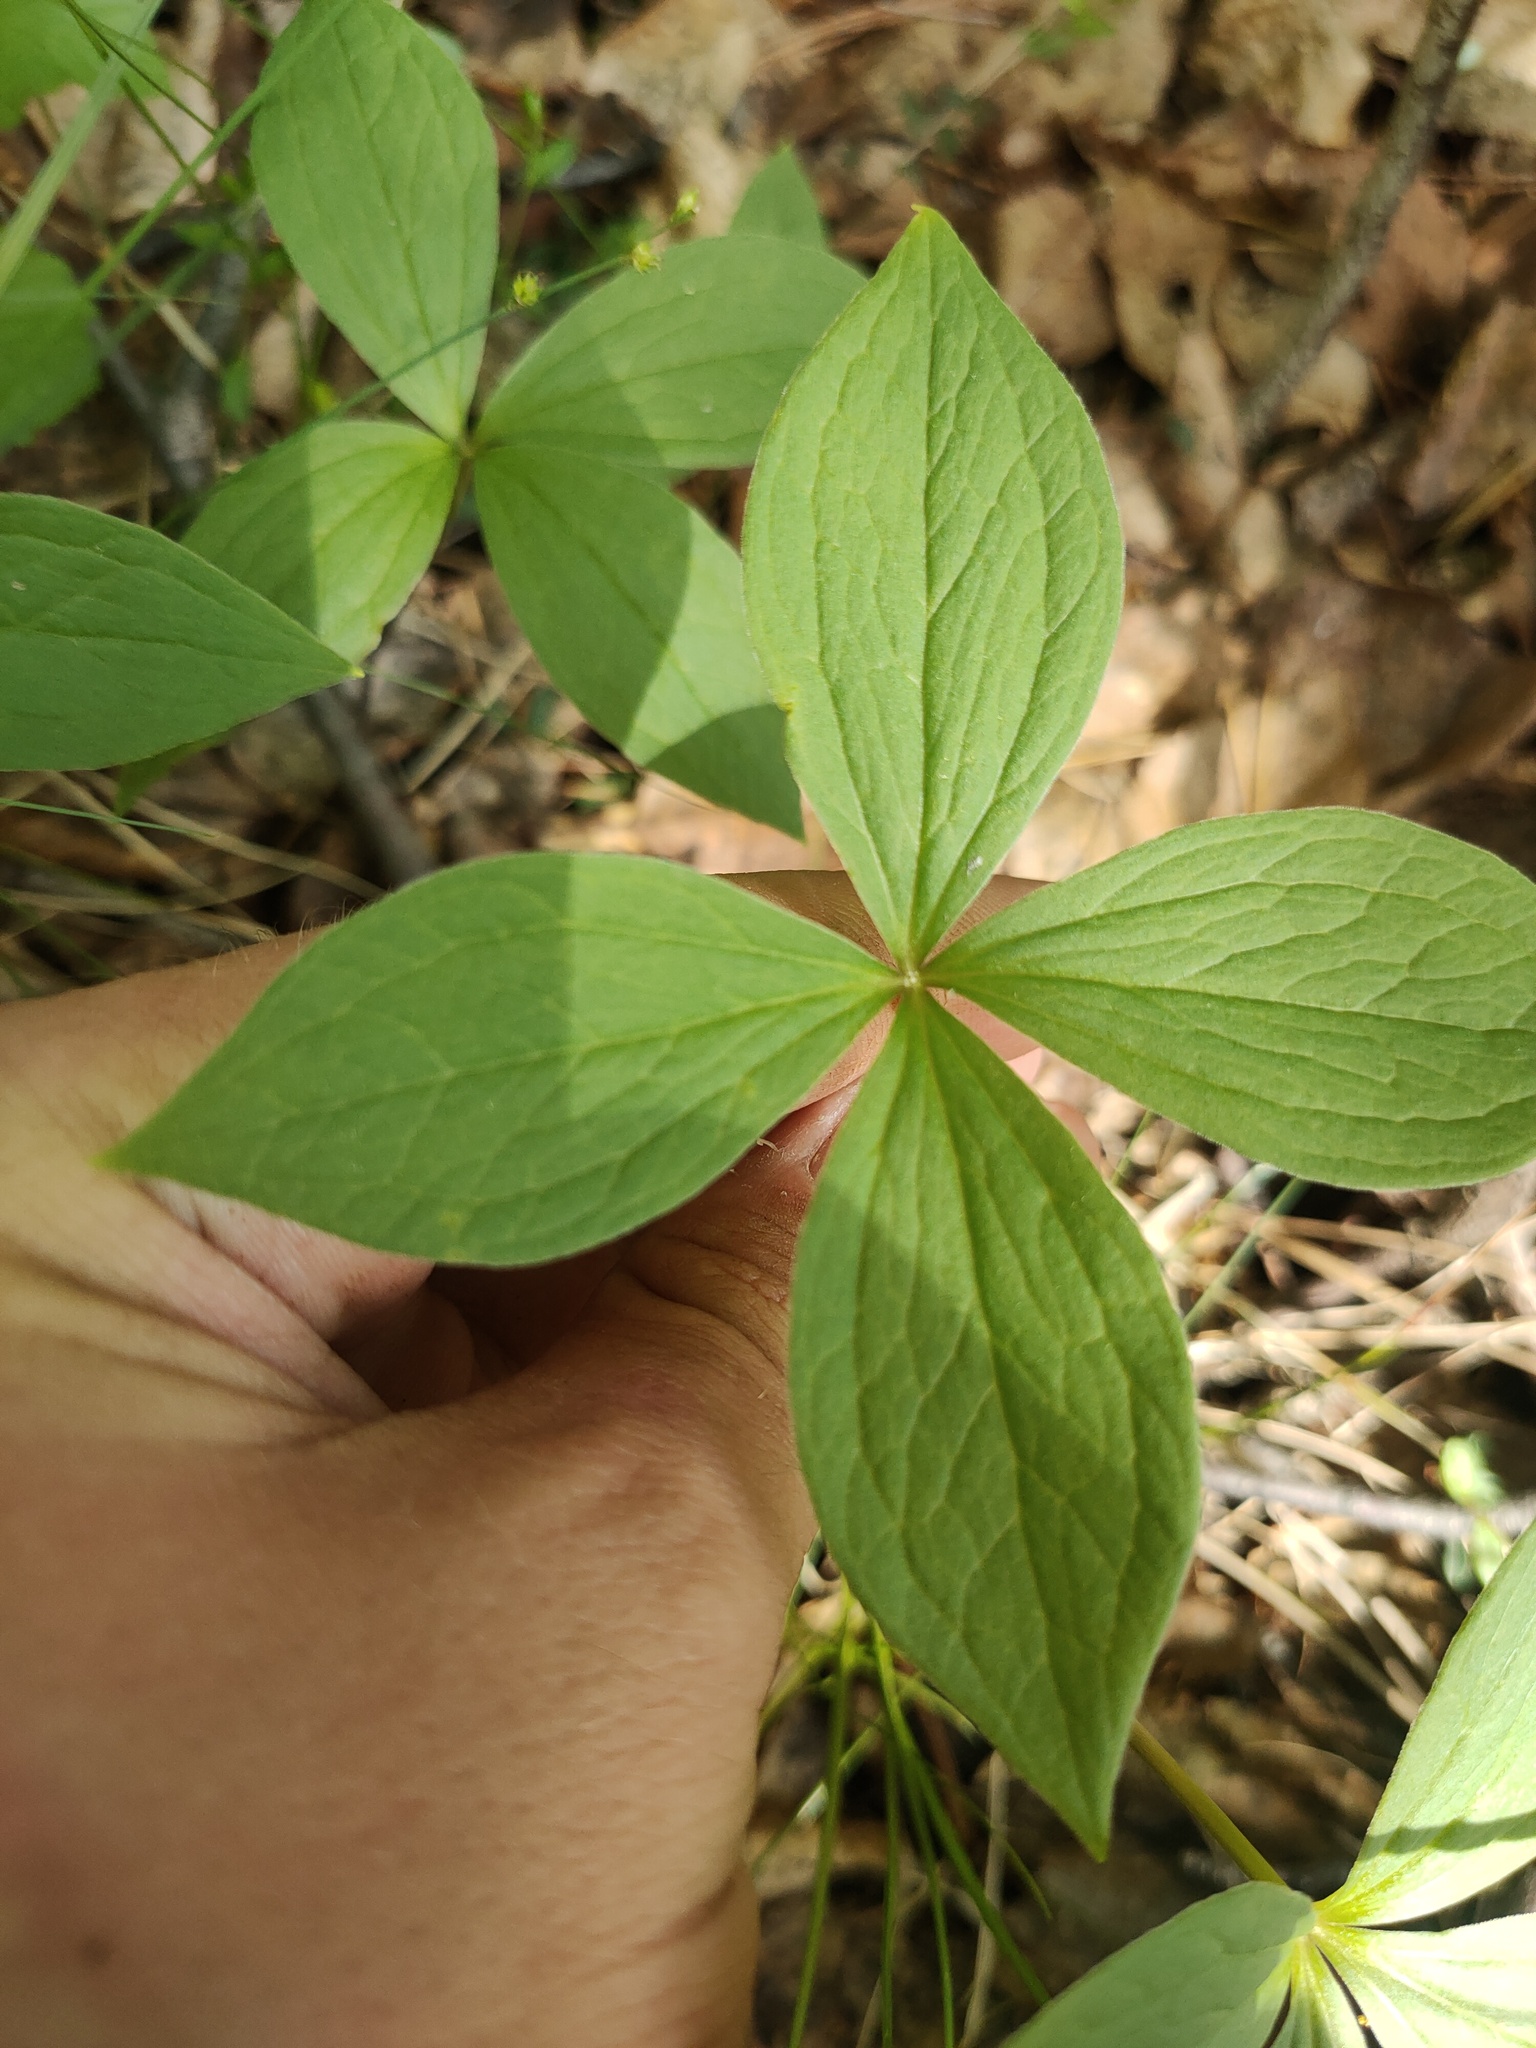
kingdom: Plantae
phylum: Tracheophyta
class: Liliopsida
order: Liliales
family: Melanthiaceae
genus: Paris
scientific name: Paris quadrifolia
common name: Herb-paris
